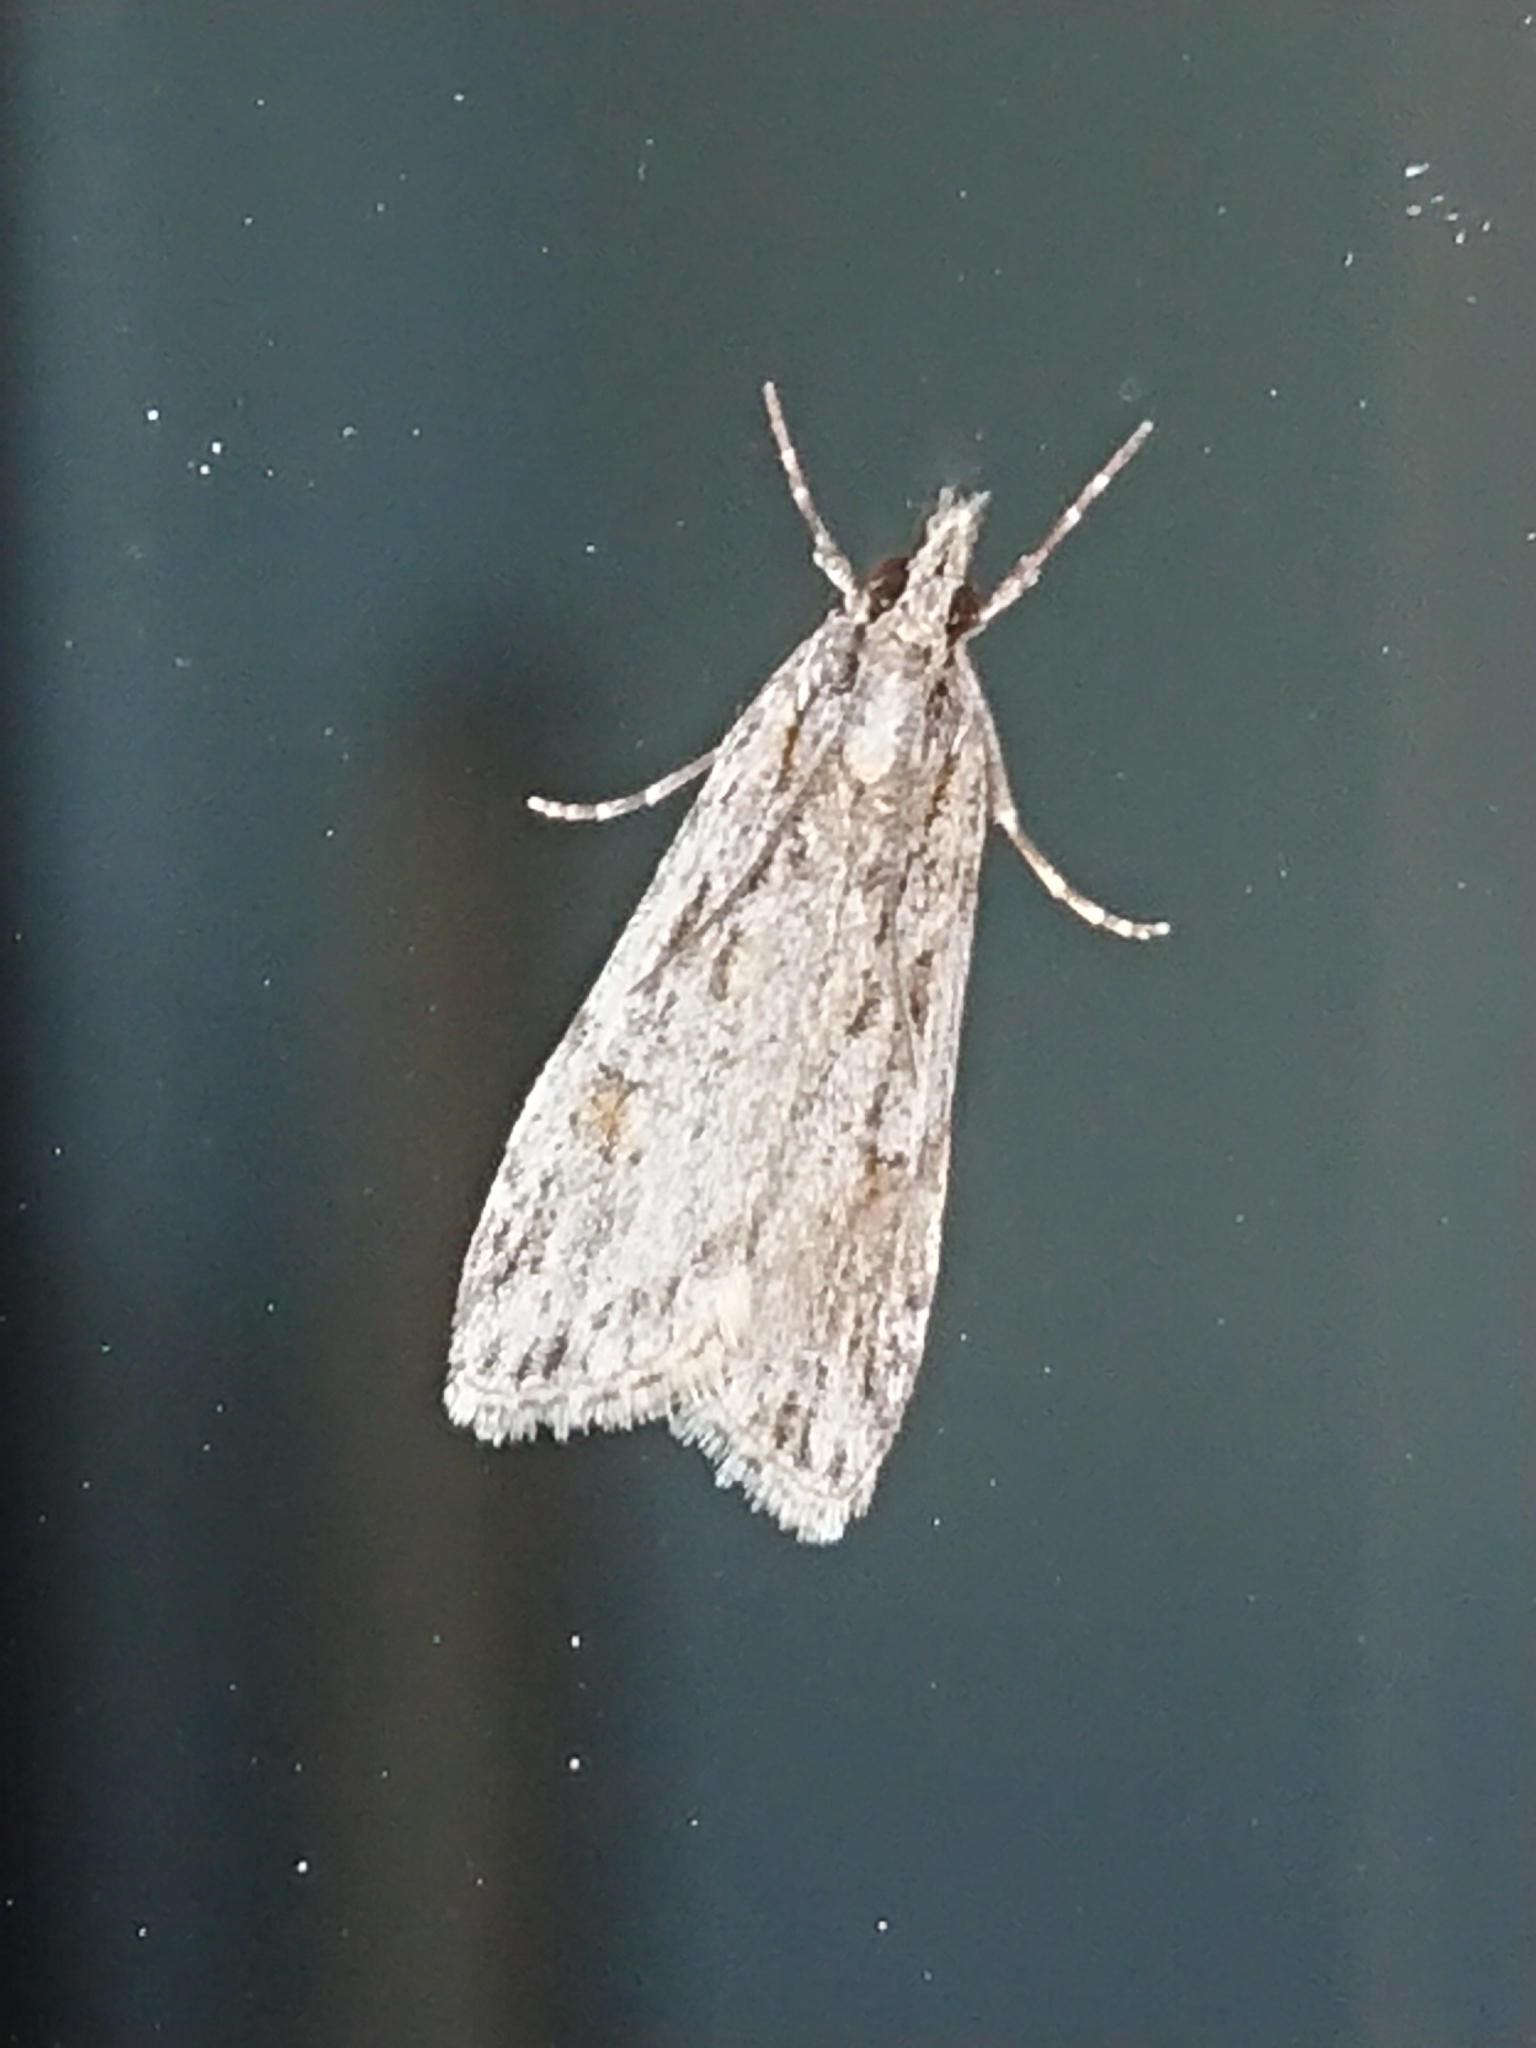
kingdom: Animalia
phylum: Arthropoda
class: Insecta
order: Lepidoptera
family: Crambidae
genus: Scoparia
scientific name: Scoparia chalicodes
